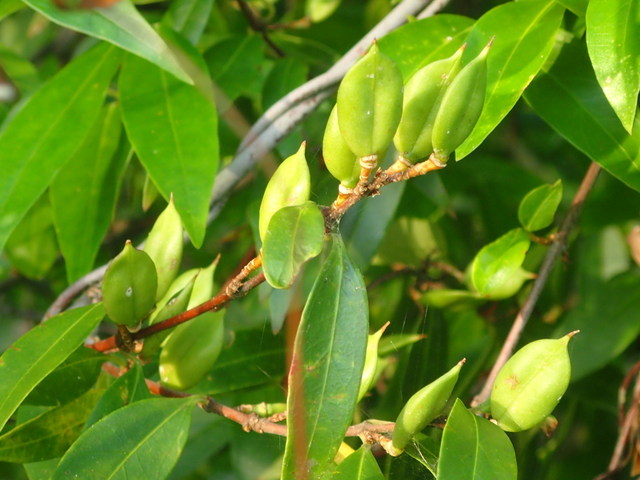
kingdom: Plantae
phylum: Tracheophyta
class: Magnoliopsida
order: Gentianales
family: Gelsemiaceae
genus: Gelsemium
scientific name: Gelsemium sempervirens
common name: Carolina-jasmine
